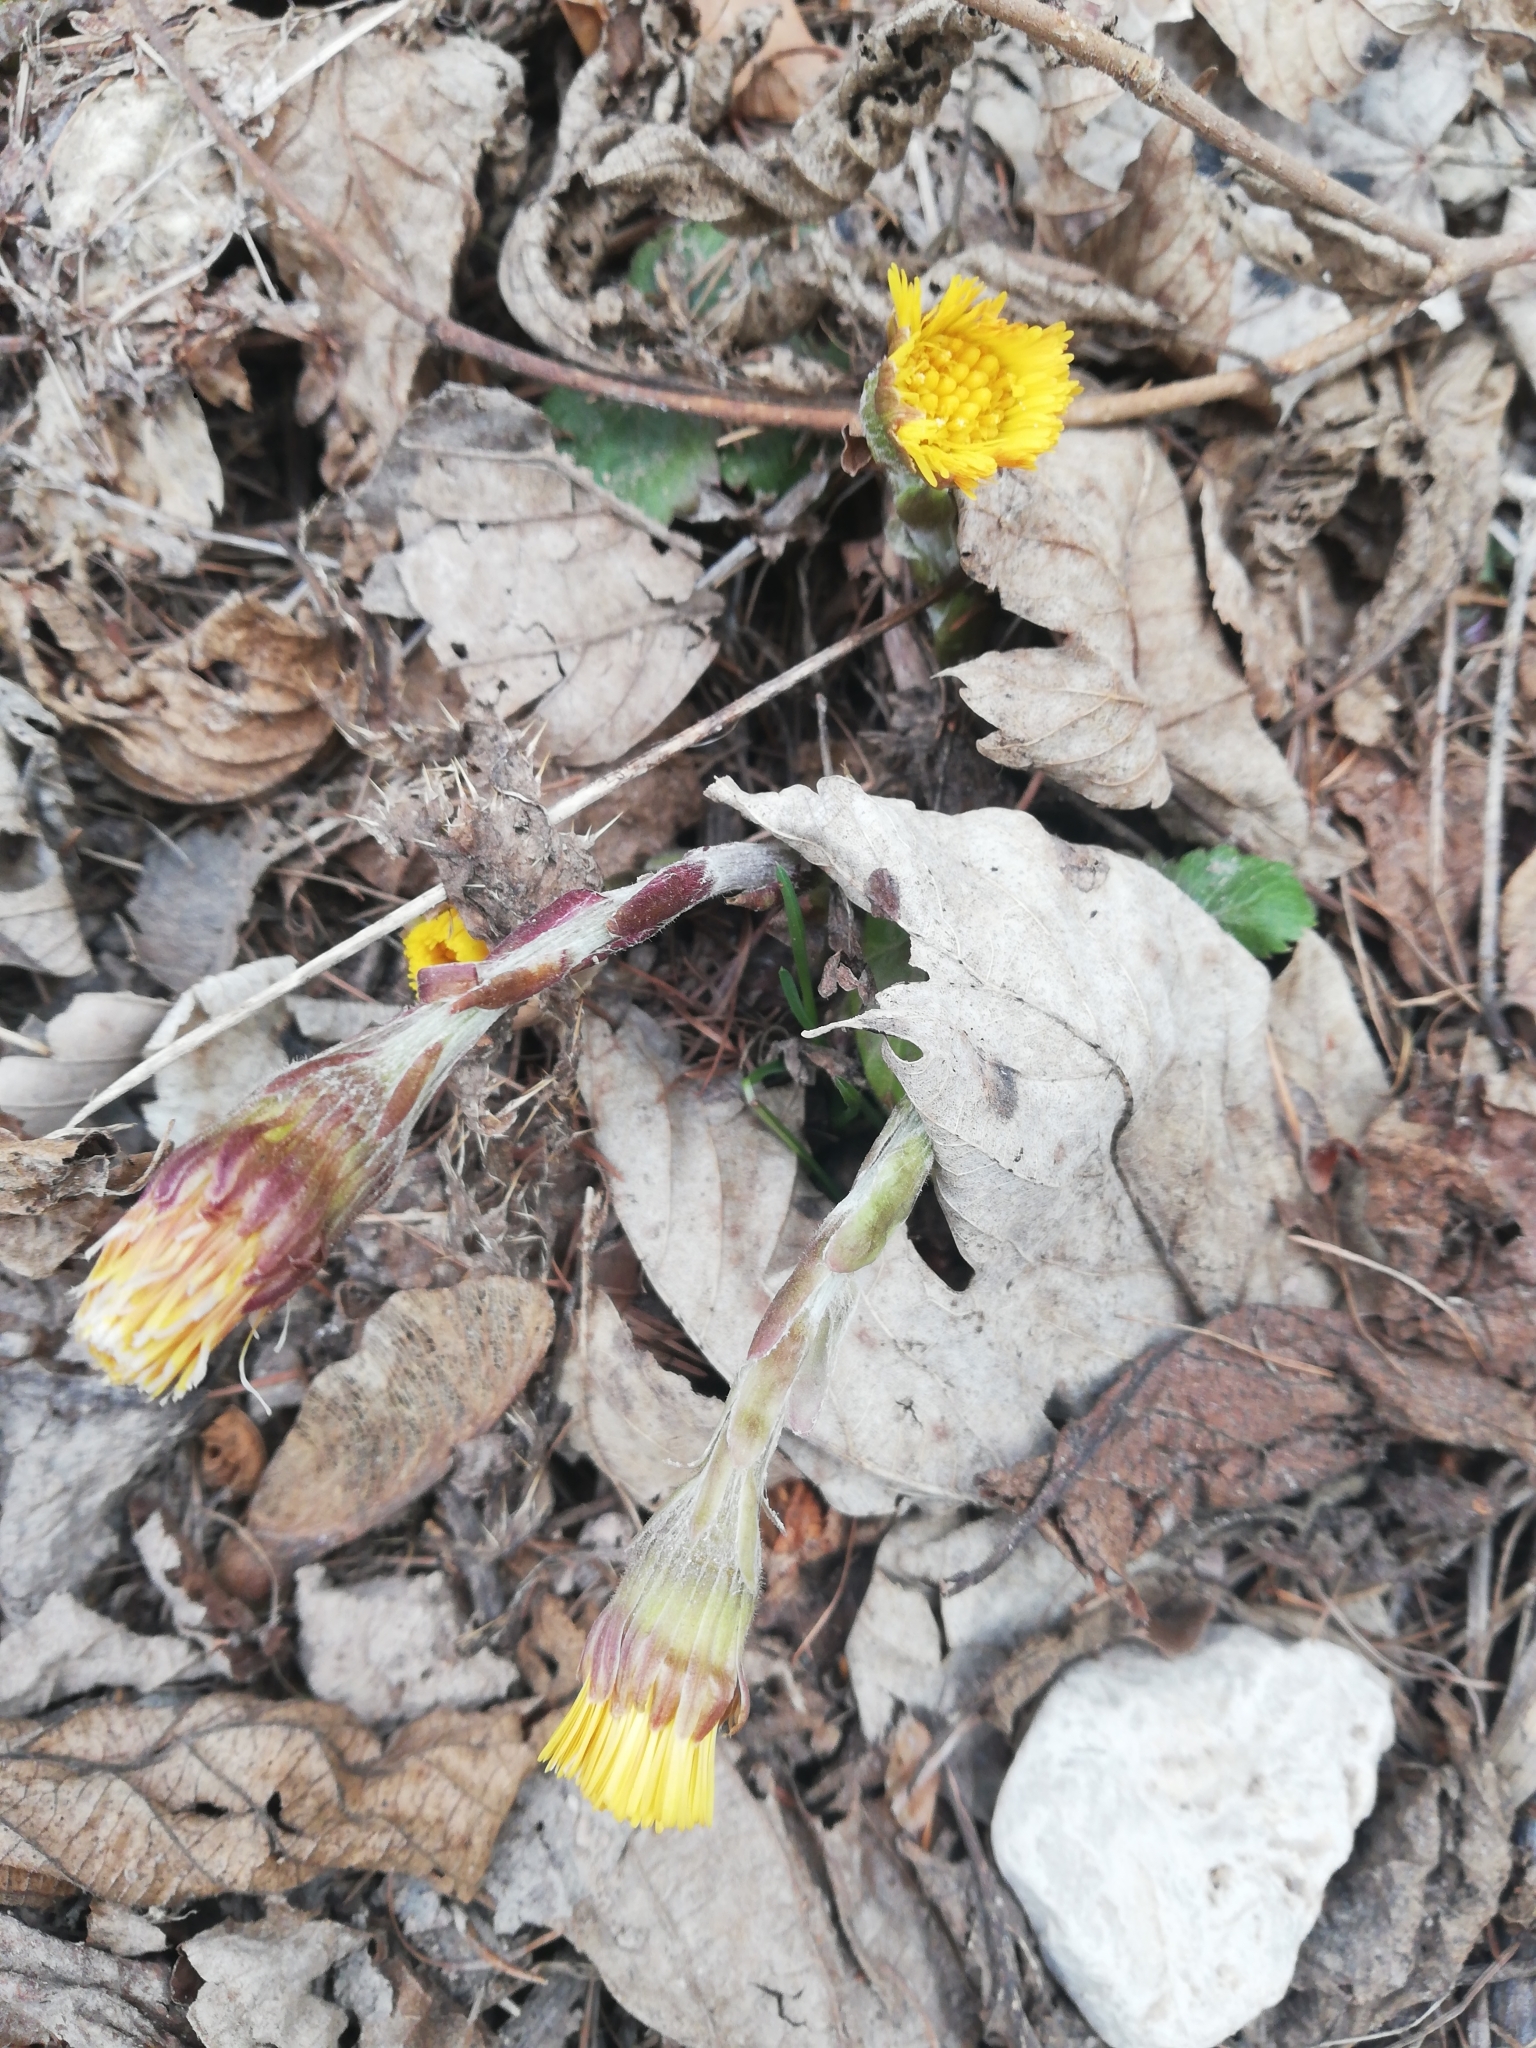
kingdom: Plantae
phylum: Tracheophyta
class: Magnoliopsida
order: Asterales
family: Asteraceae
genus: Tussilago
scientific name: Tussilago farfara
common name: Coltsfoot
